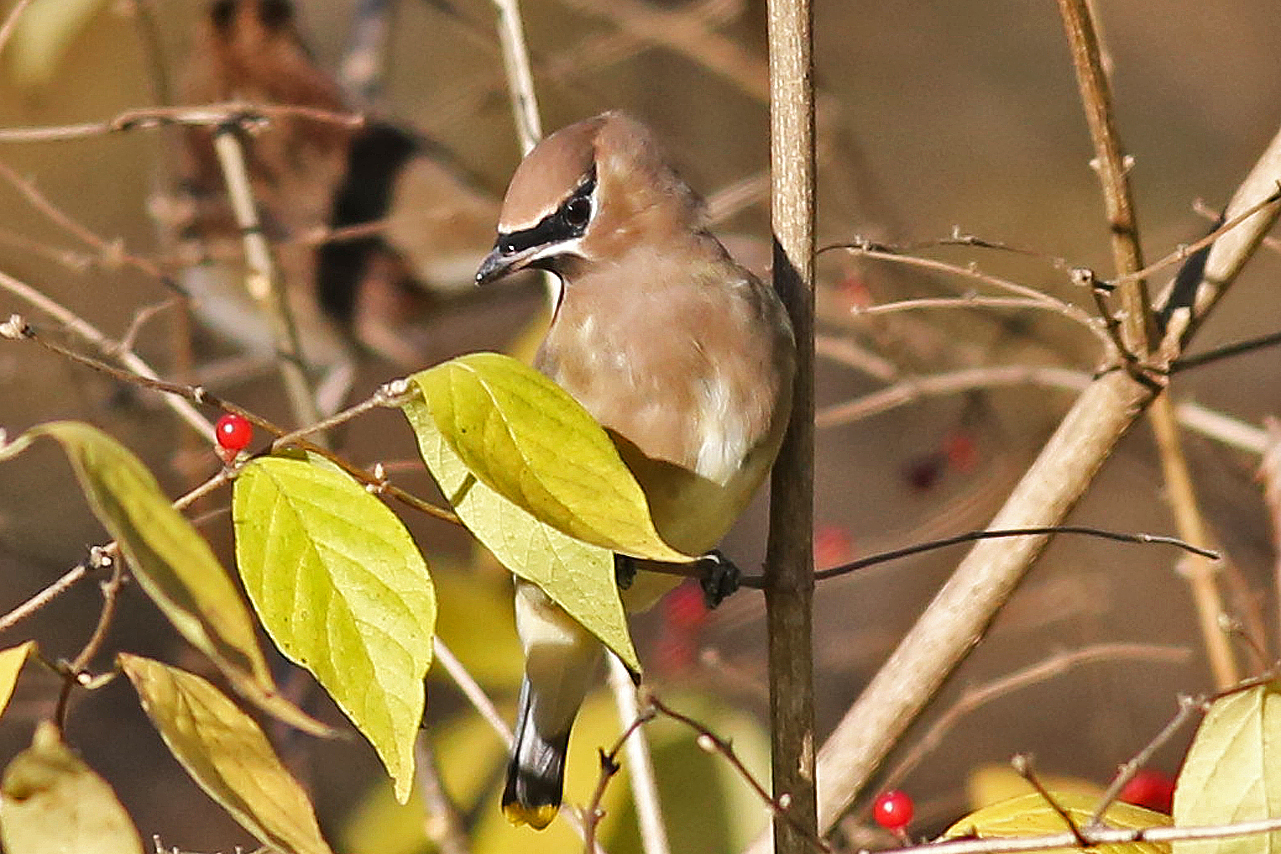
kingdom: Animalia
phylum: Chordata
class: Aves
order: Passeriformes
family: Bombycillidae
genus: Bombycilla
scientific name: Bombycilla cedrorum
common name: Cedar waxwing
